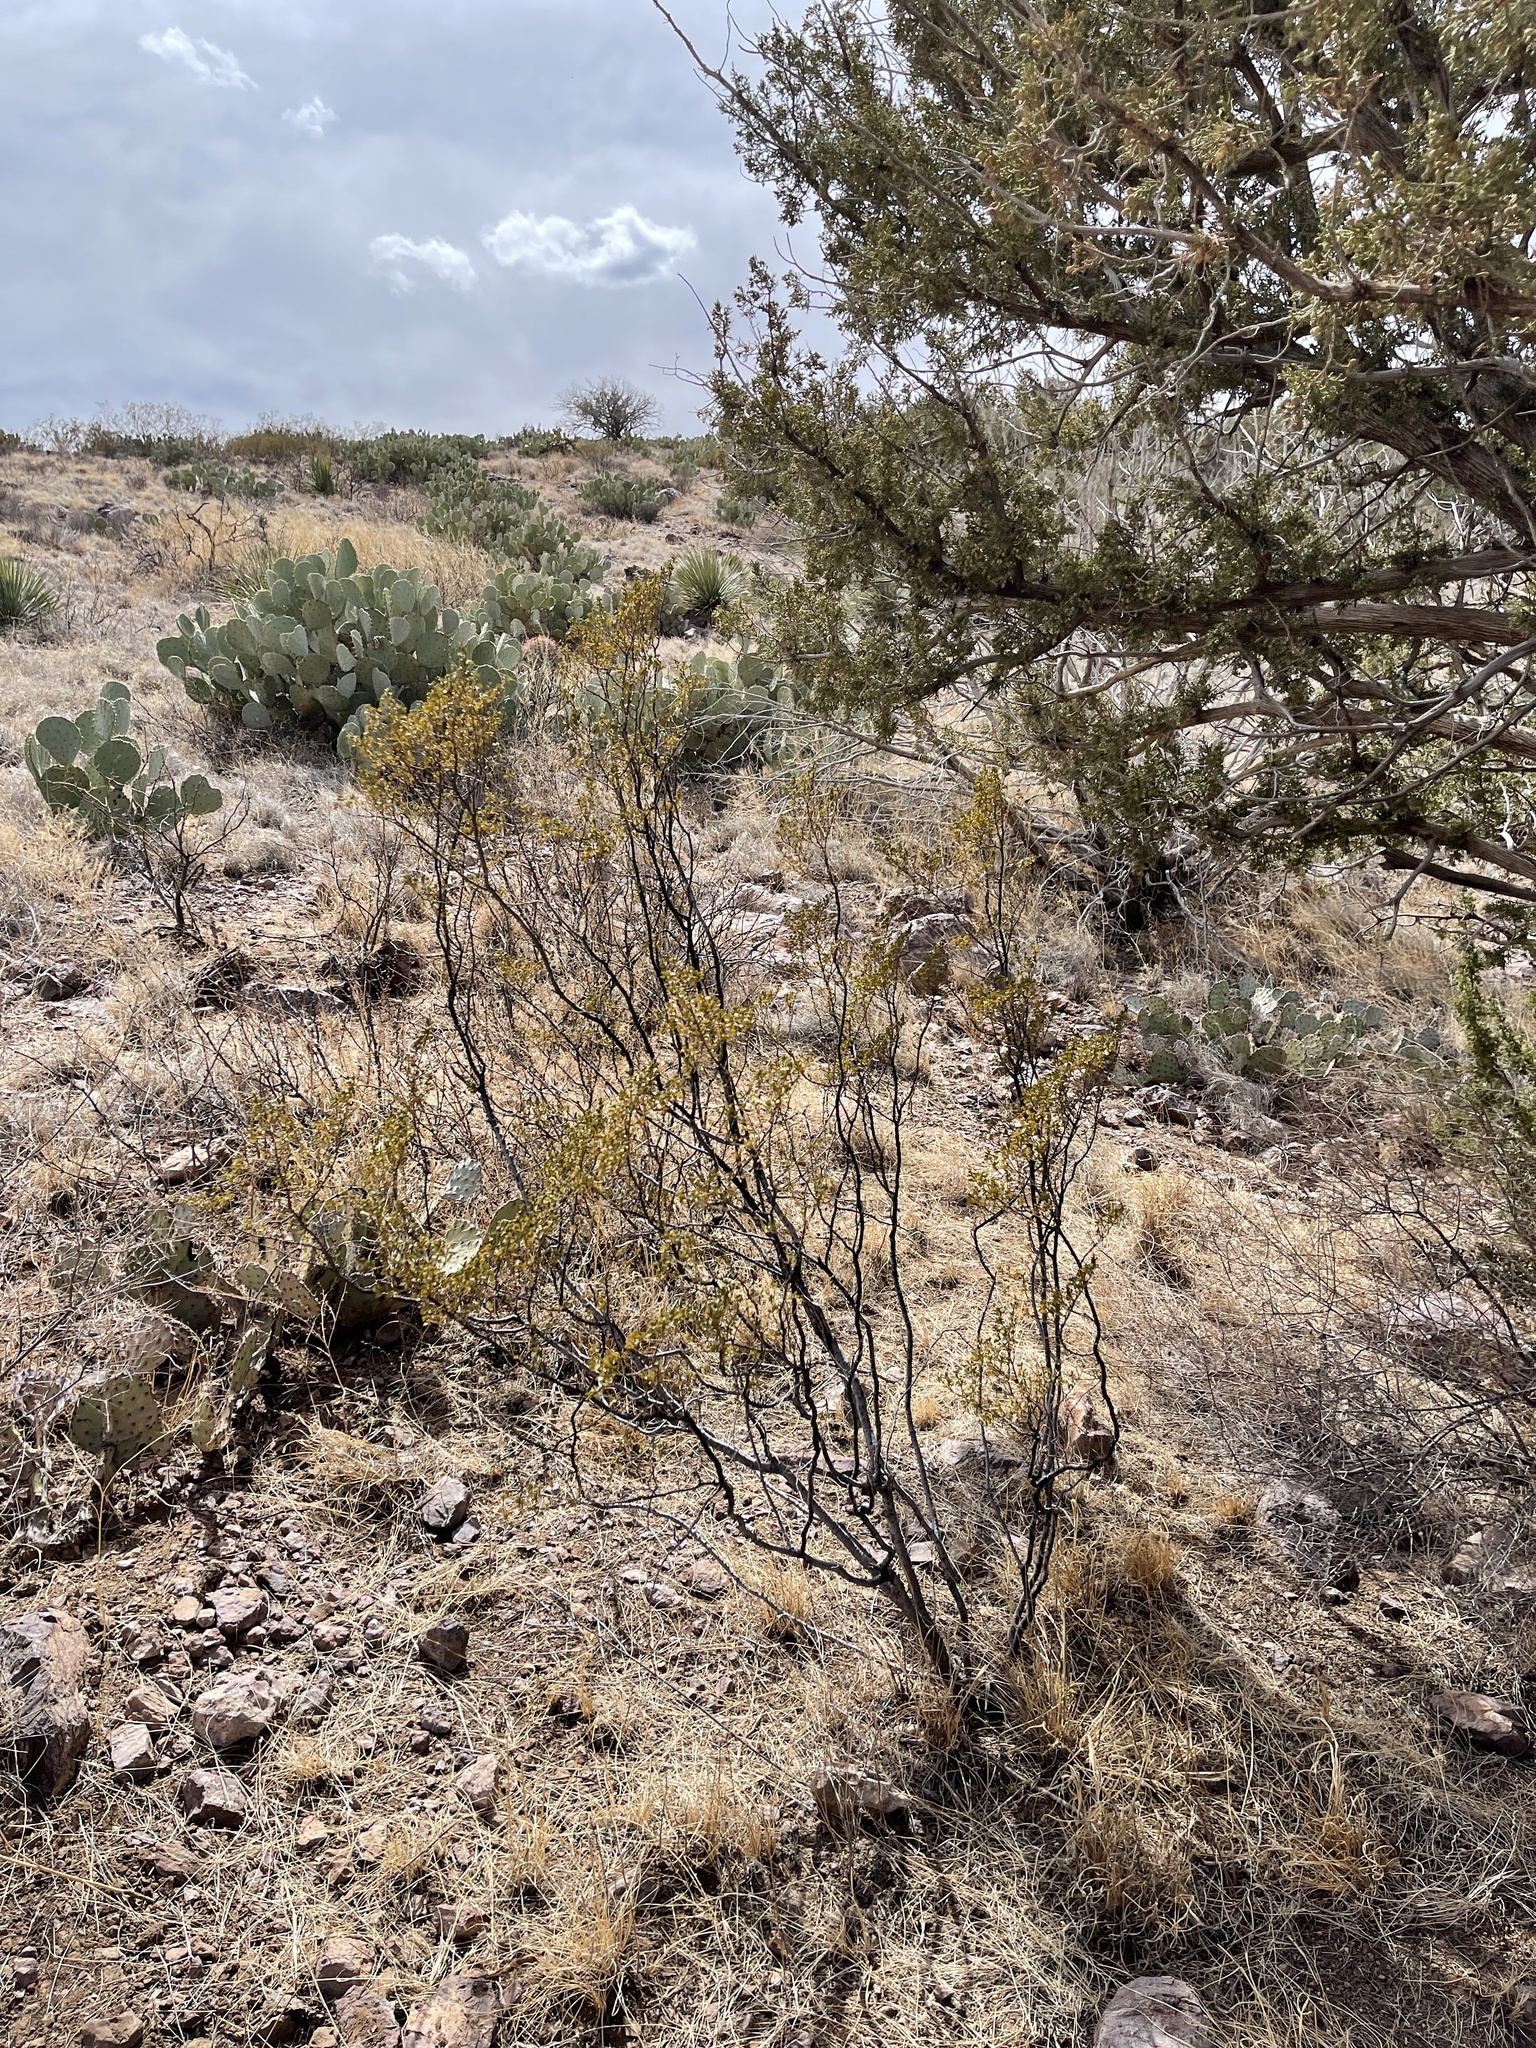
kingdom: Plantae
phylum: Tracheophyta
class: Magnoliopsida
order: Fabales
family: Fabaceae
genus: Vachellia
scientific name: Vachellia constricta
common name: Mescat acacia
